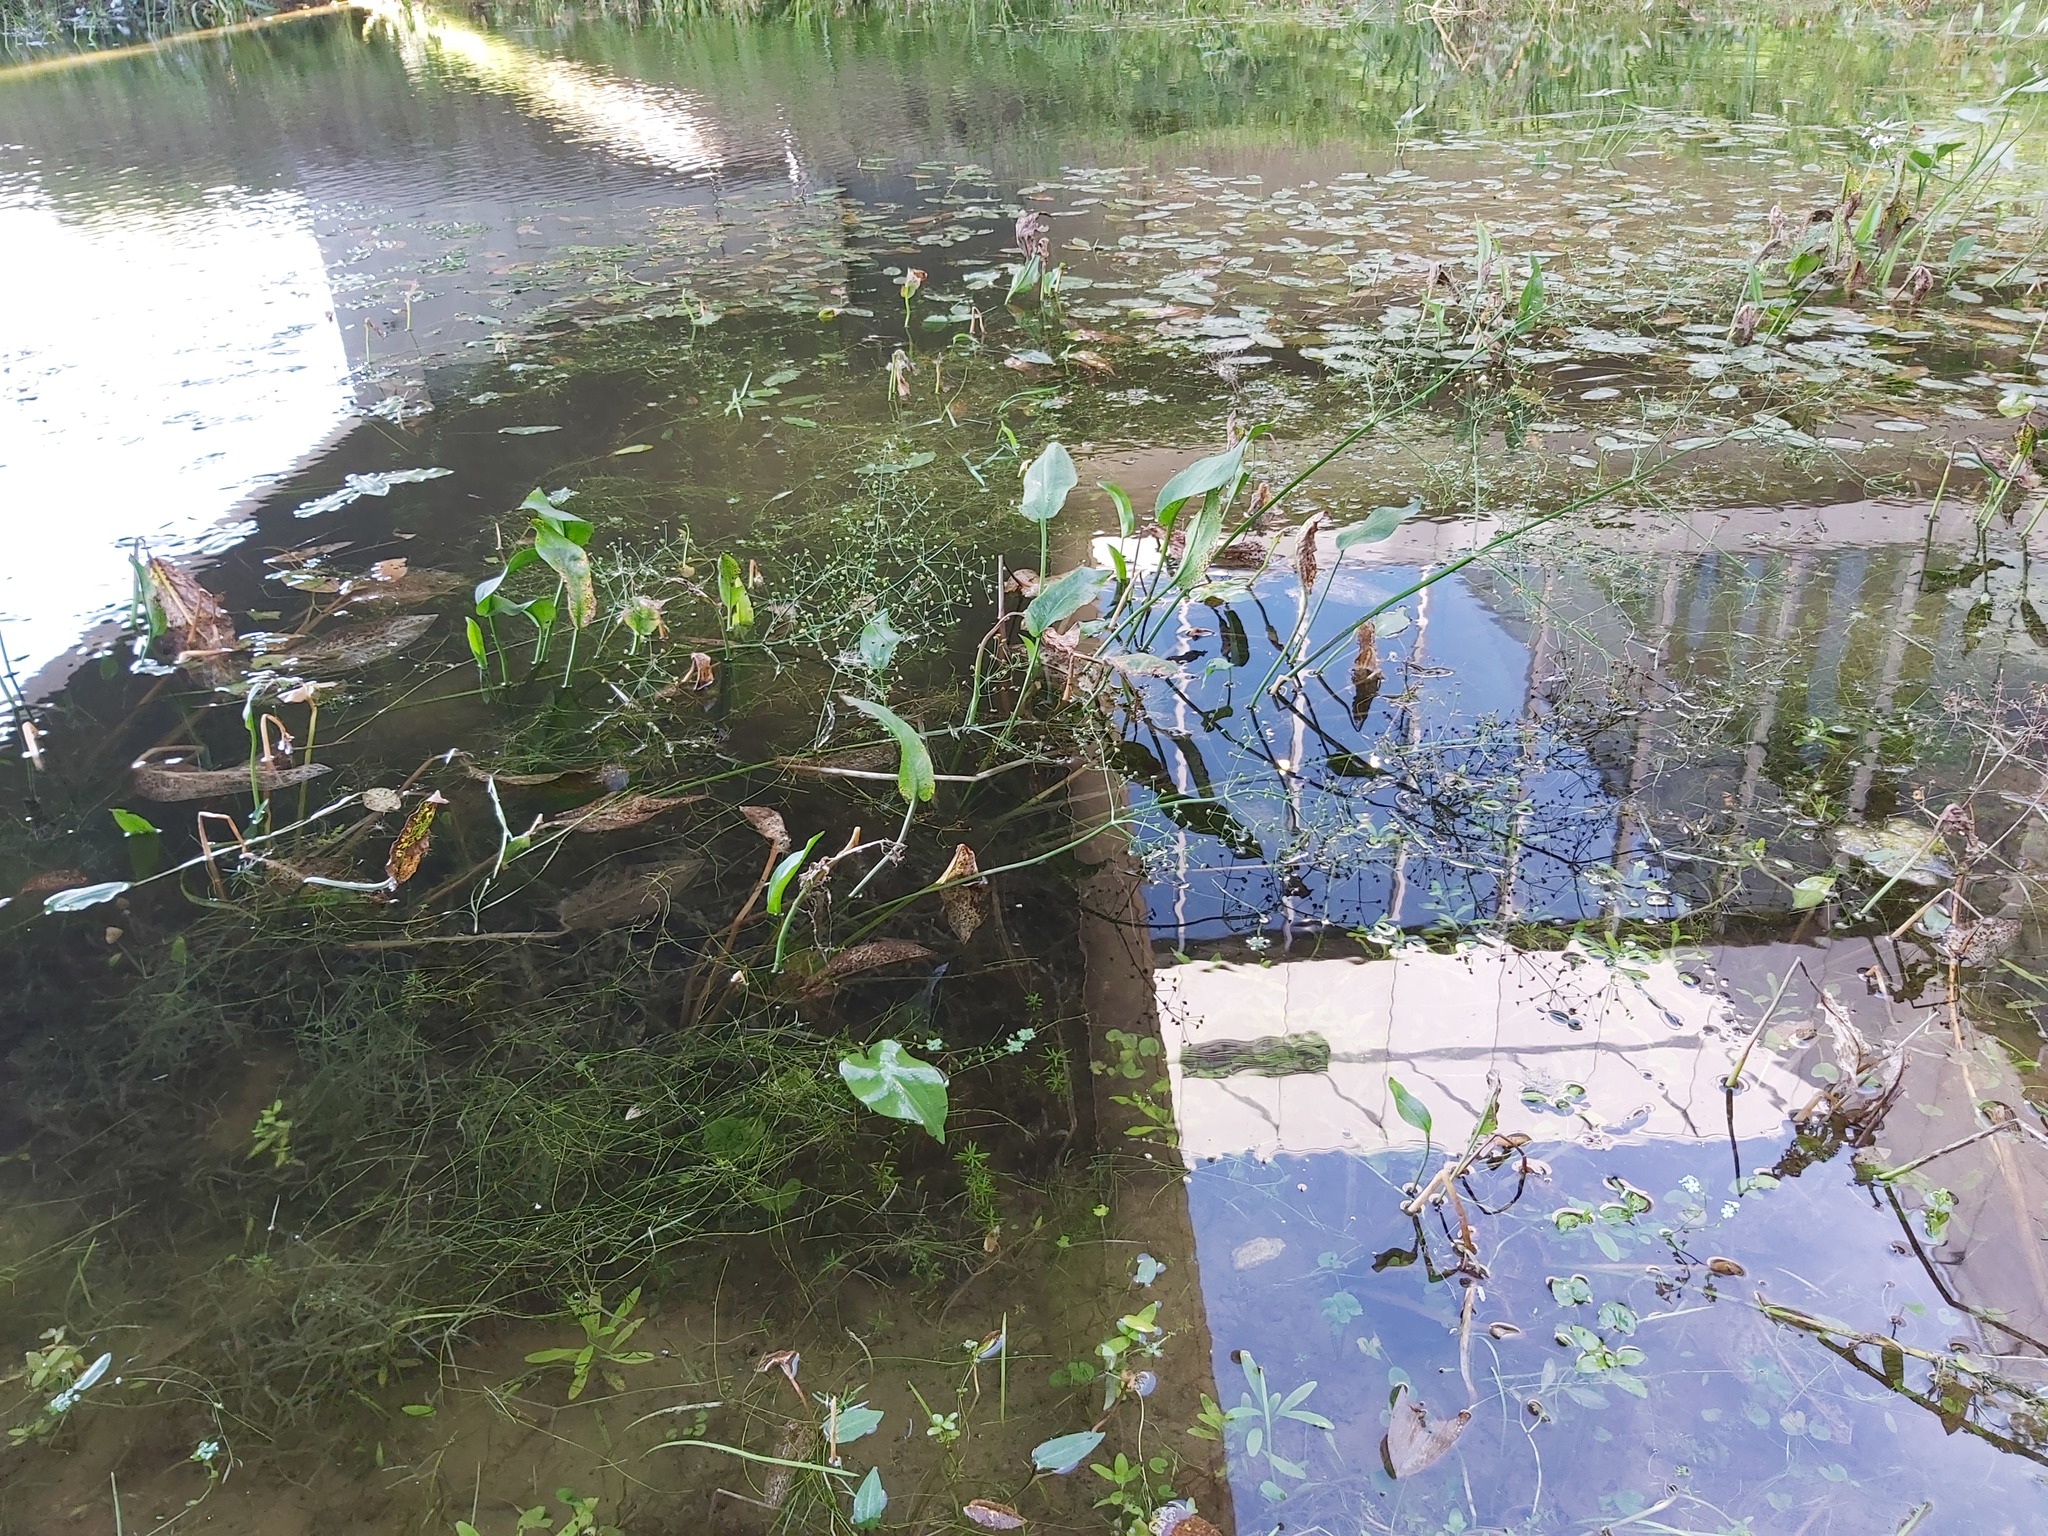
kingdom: Plantae
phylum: Tracheophyta
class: Liliopsida
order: Alismatales
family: Alismataceae
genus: Alisma
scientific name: Alisma plantago-aquatica
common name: Water-plantain
